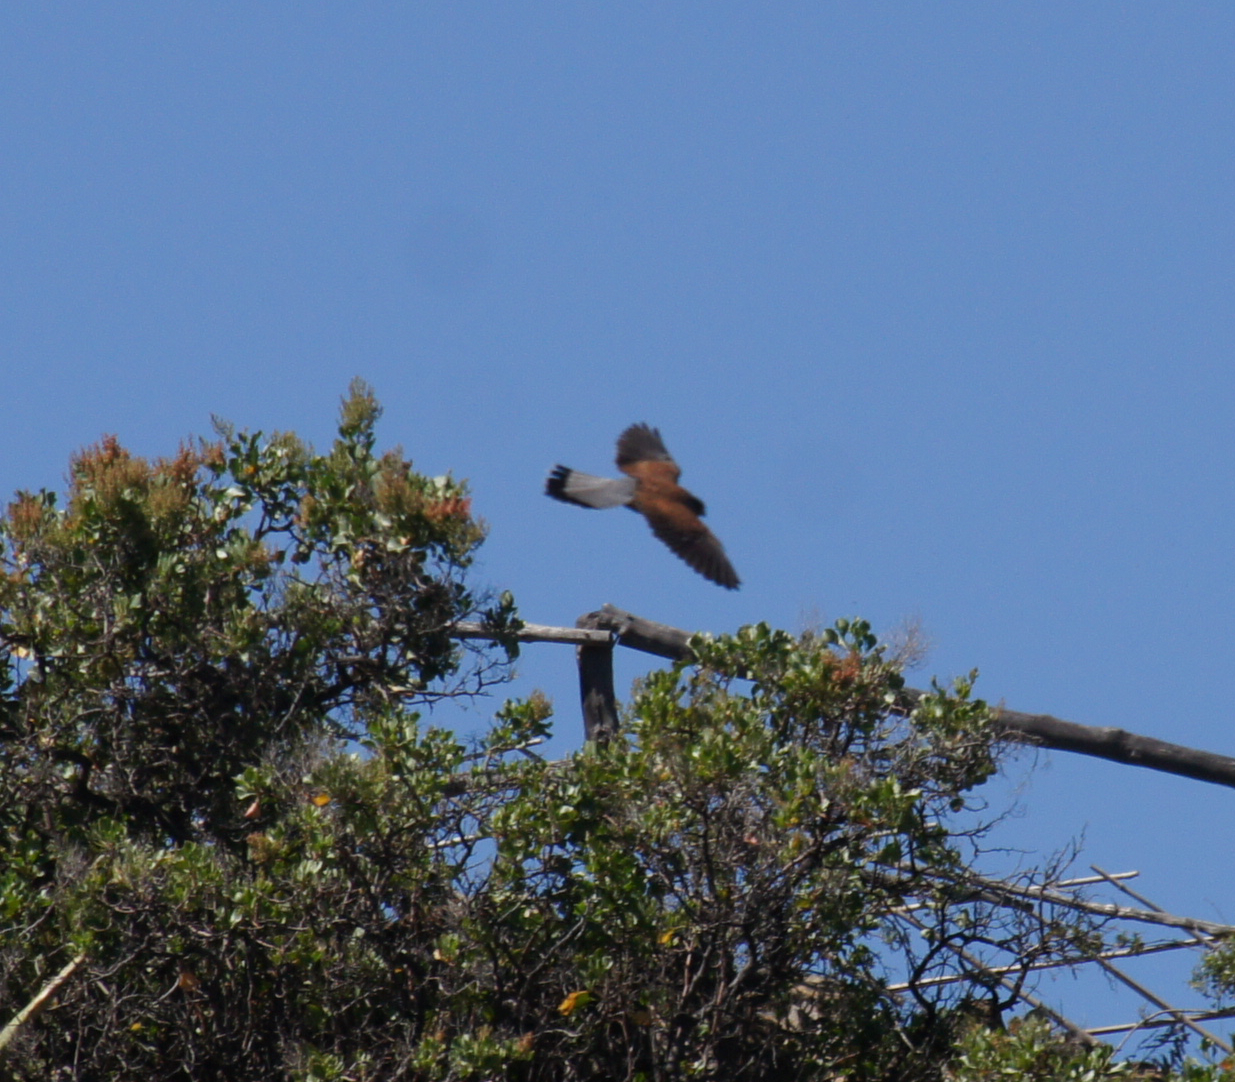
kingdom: Animalia
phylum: Chordata
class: Aves
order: Falconiformes
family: Falconidae
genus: Falco
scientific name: Falco tinnunculus
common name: Common kestrel
